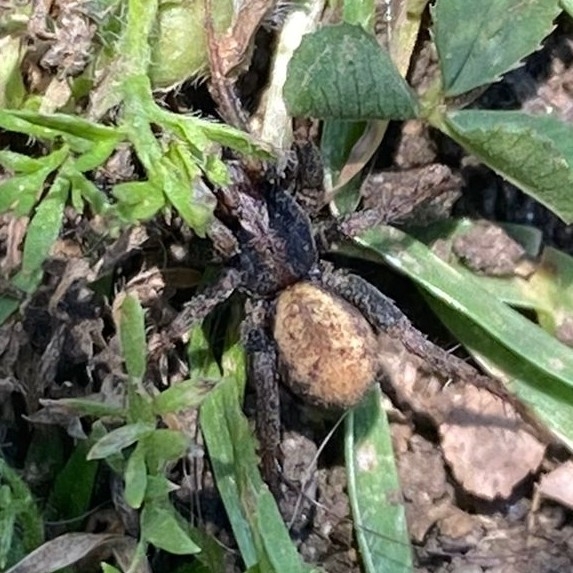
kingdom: Animalia
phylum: Arthropoda
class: Arachnida
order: Araneae
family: Zodariidae
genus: Cybaeodamus
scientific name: Cybaeodamus lycosoides
